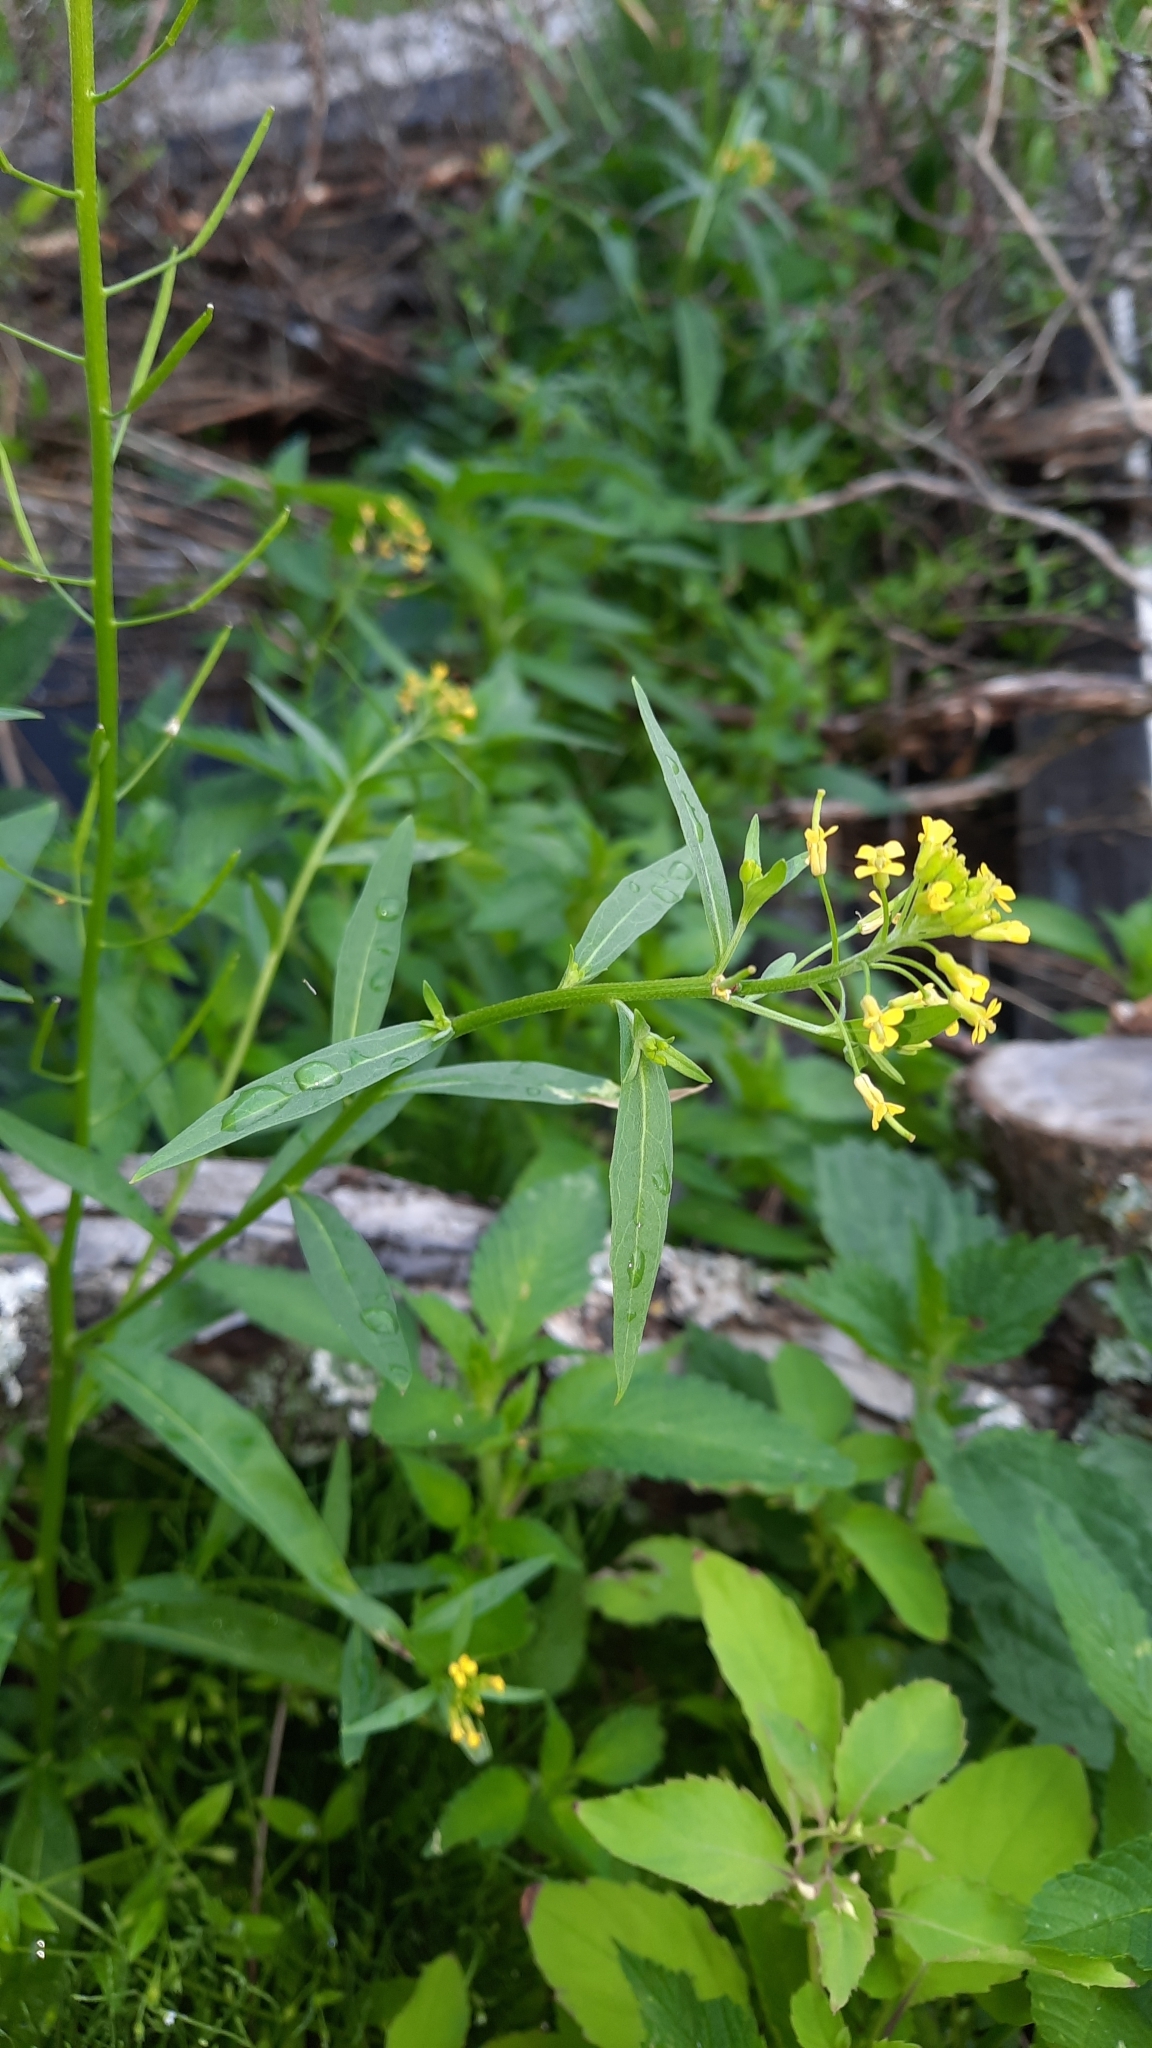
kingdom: Plantae
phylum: Tracheophyta
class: Magnoliopsida
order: Brassicales
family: Brassicaceae
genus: Erysimum
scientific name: Erysimum cheiranthoides
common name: Treacle mustard
